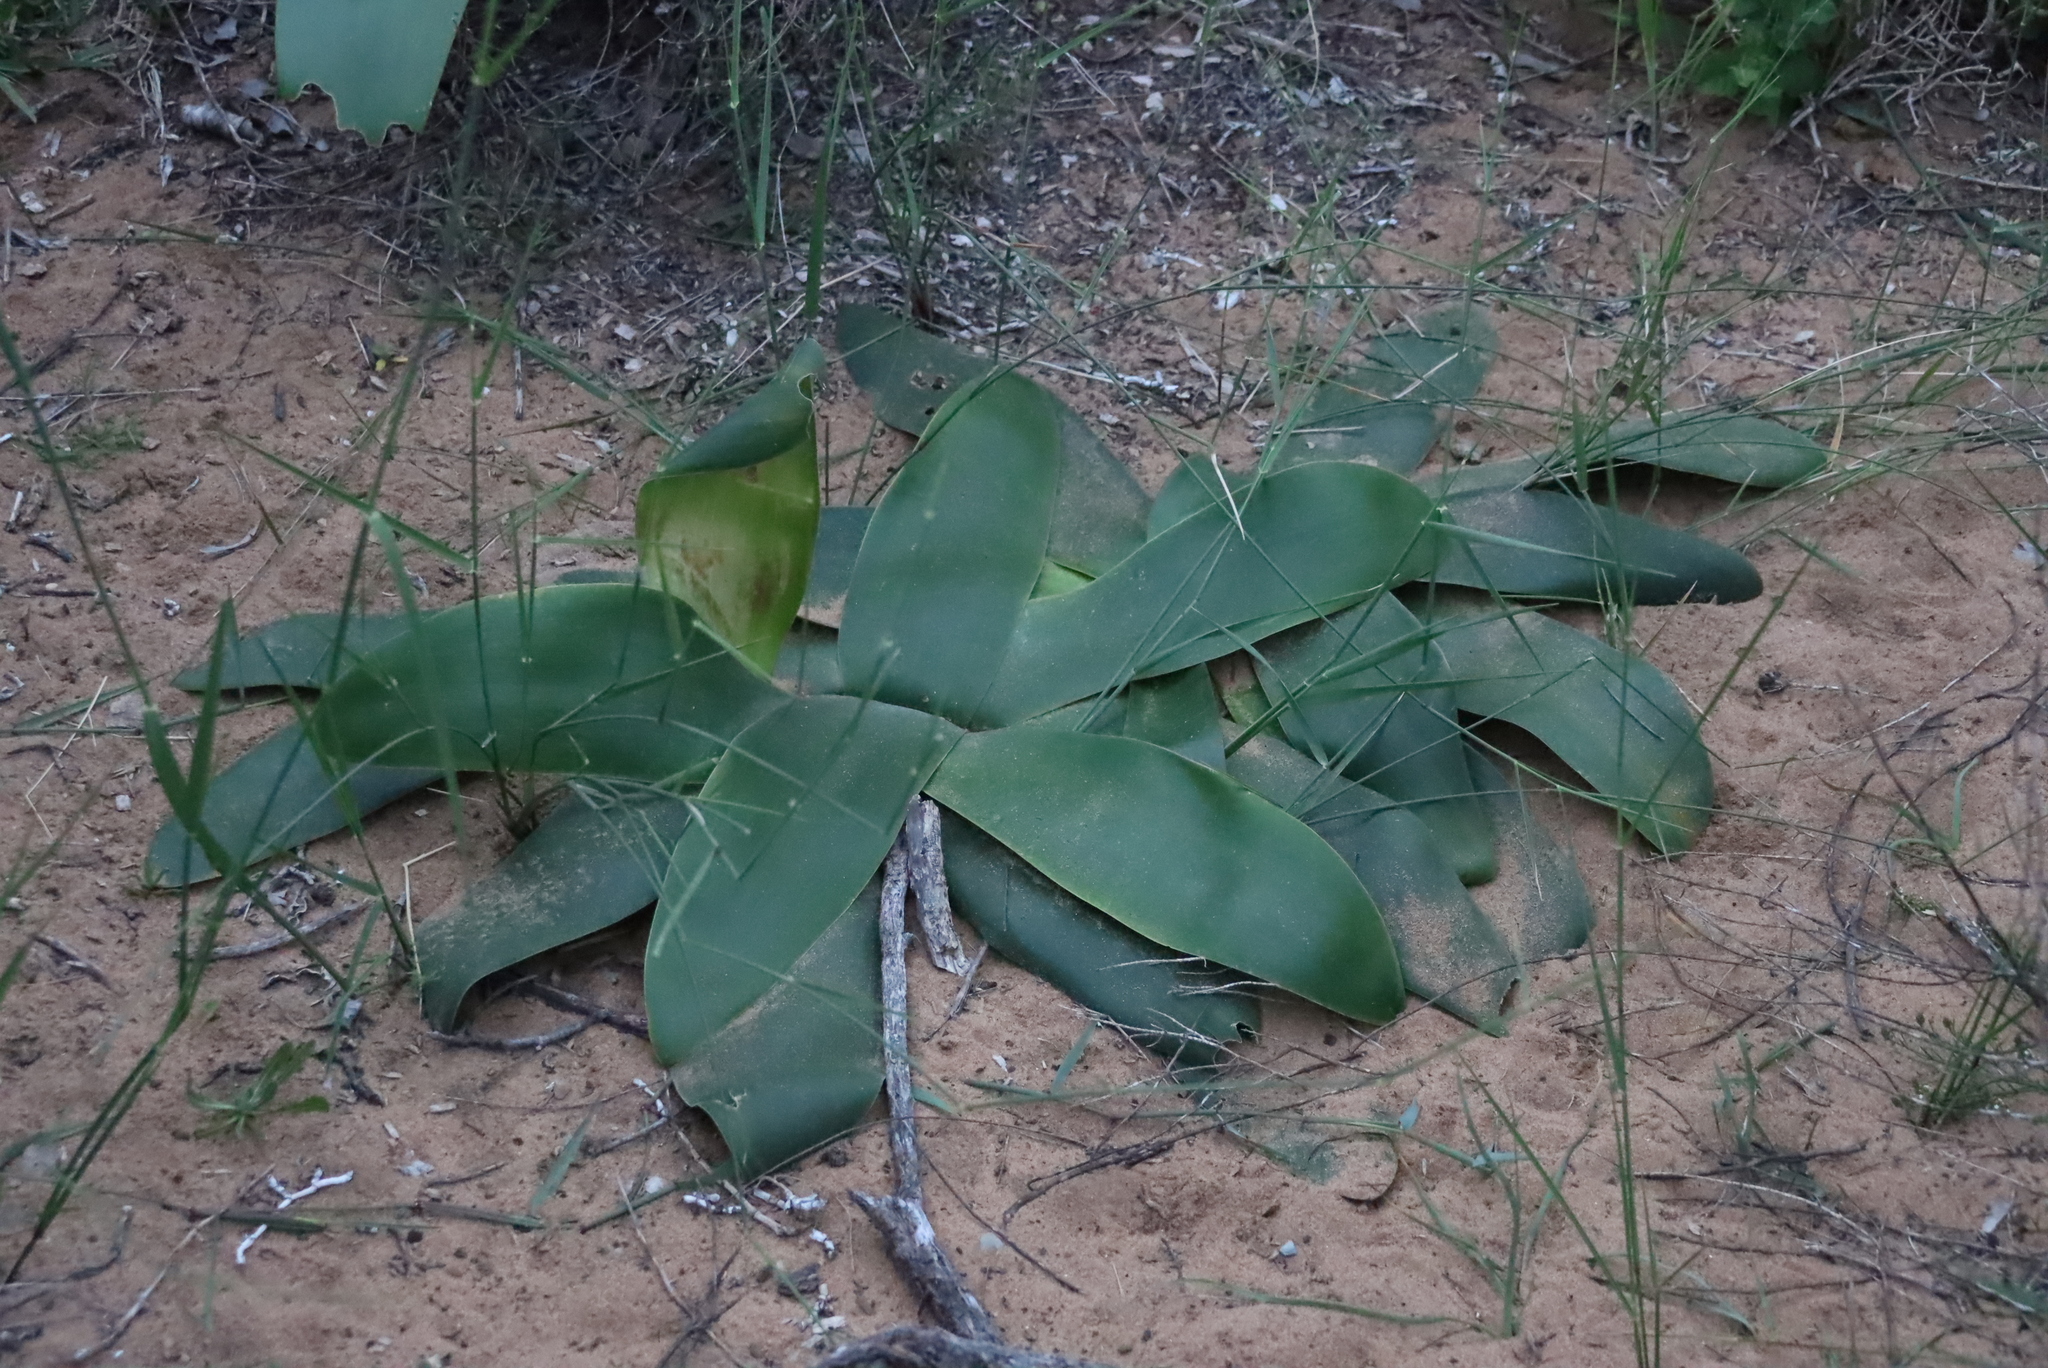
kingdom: Plantae
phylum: Tracheophyta
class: Liliopsida
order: Asparagales
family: Amaryllidaceae
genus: Brunsvigia
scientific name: Brunsvigia orientalis
